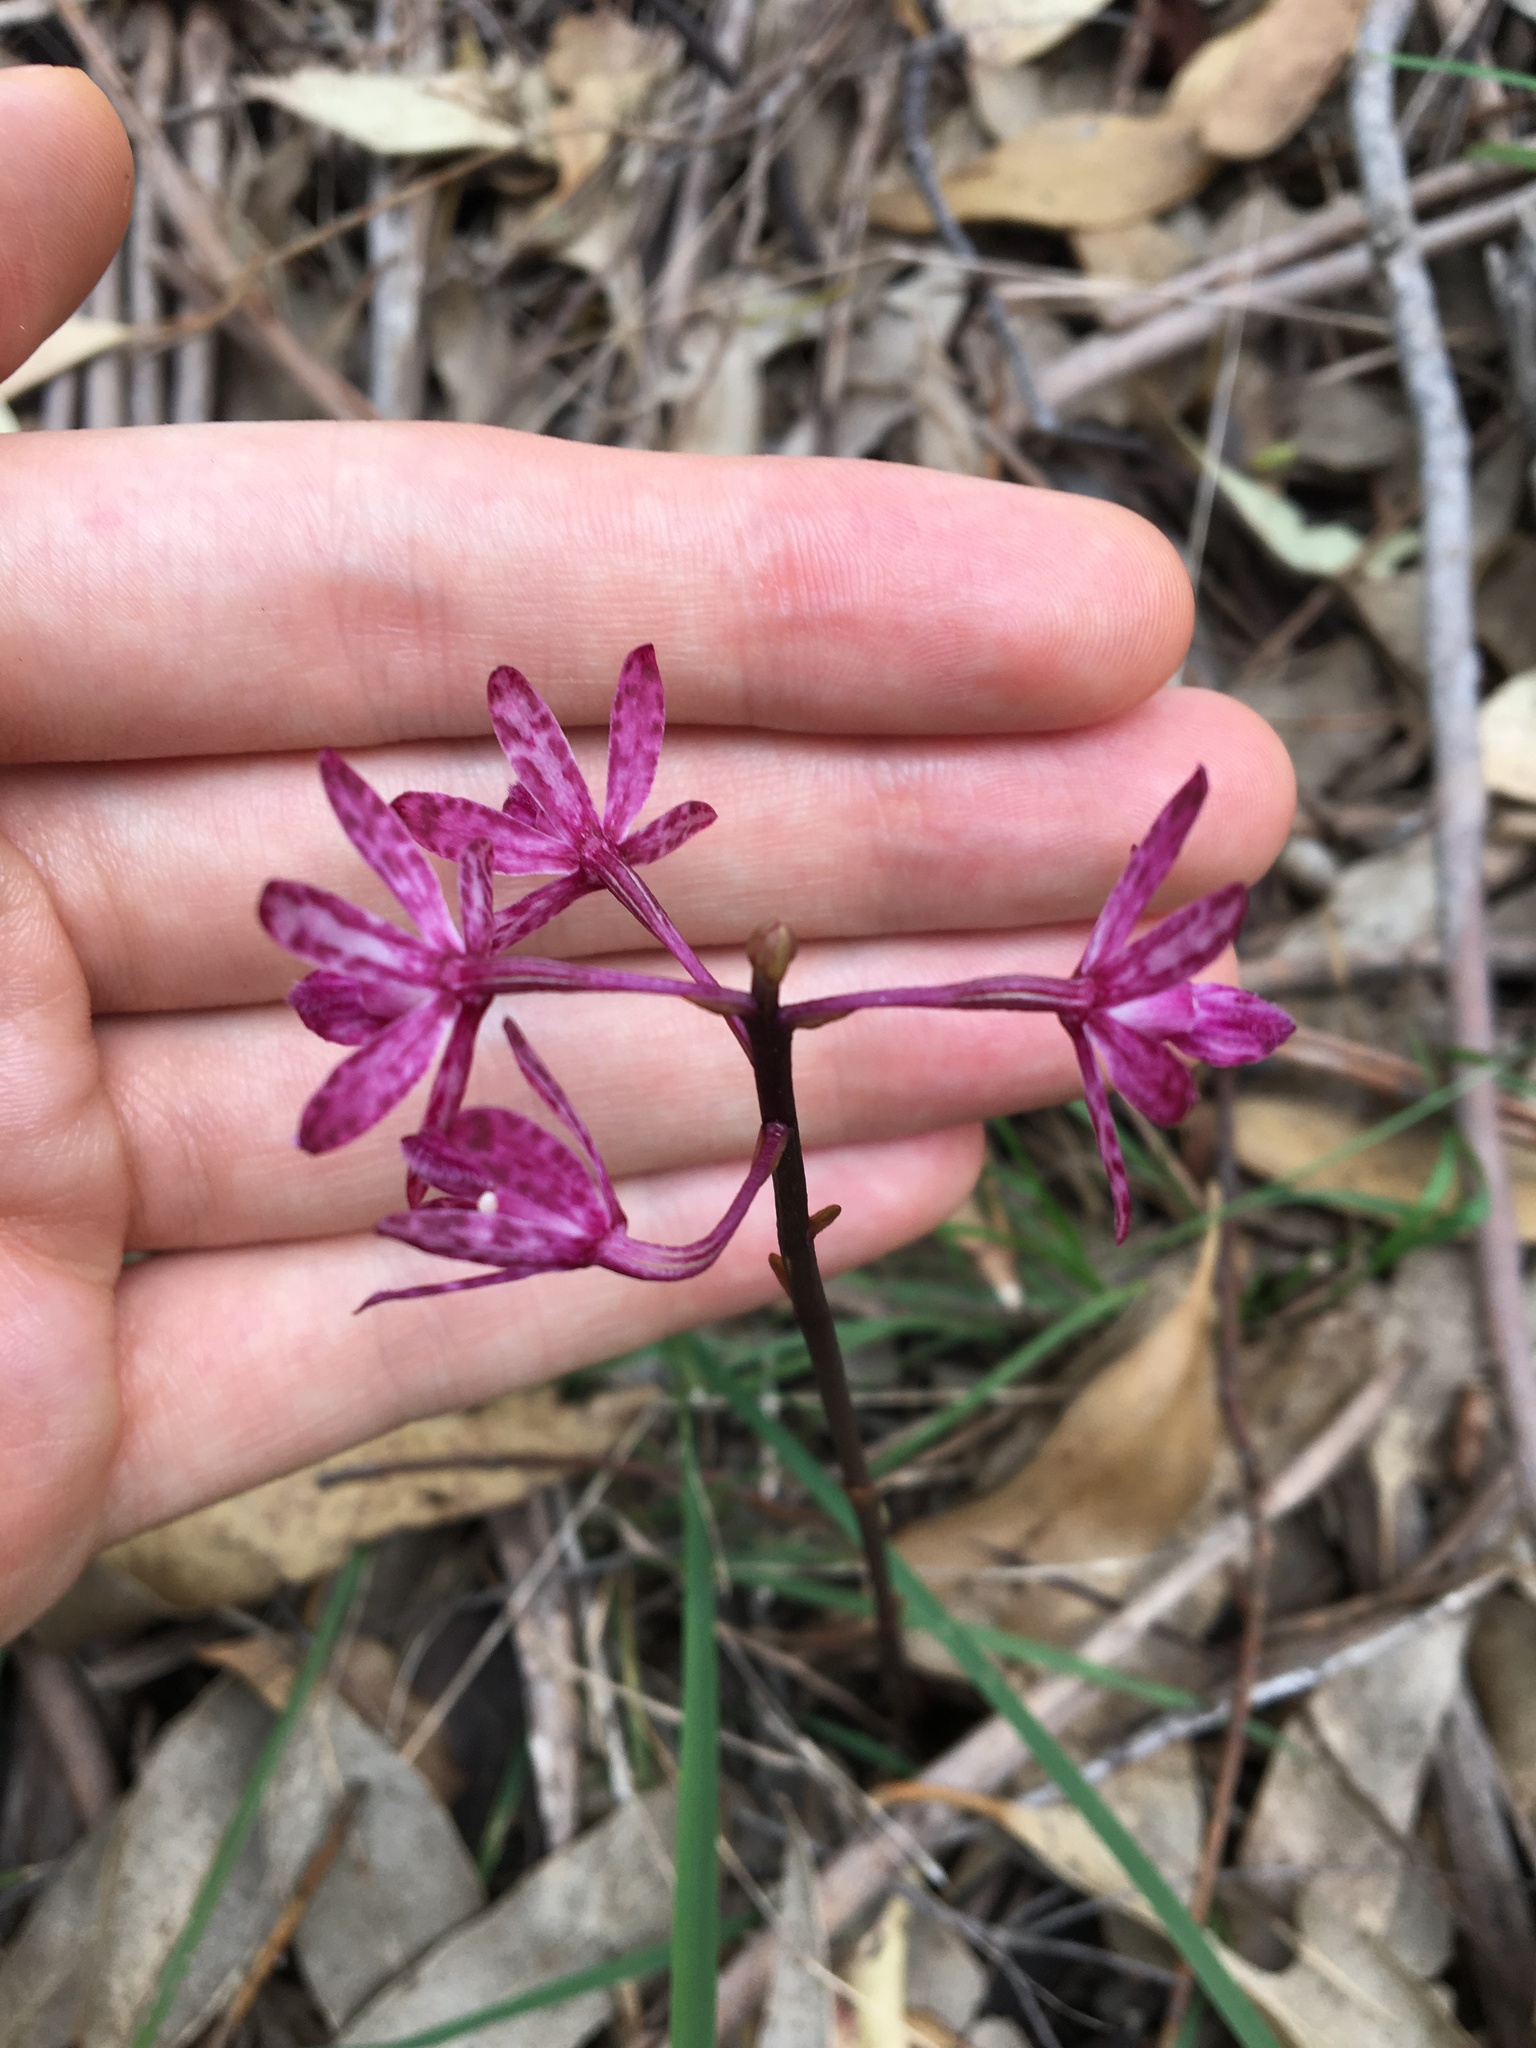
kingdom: Plantae
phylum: Tracheophyta
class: Liliopsida
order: Asparagales
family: Orchidaceae
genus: Dipodium
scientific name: Dipodium squamatum
